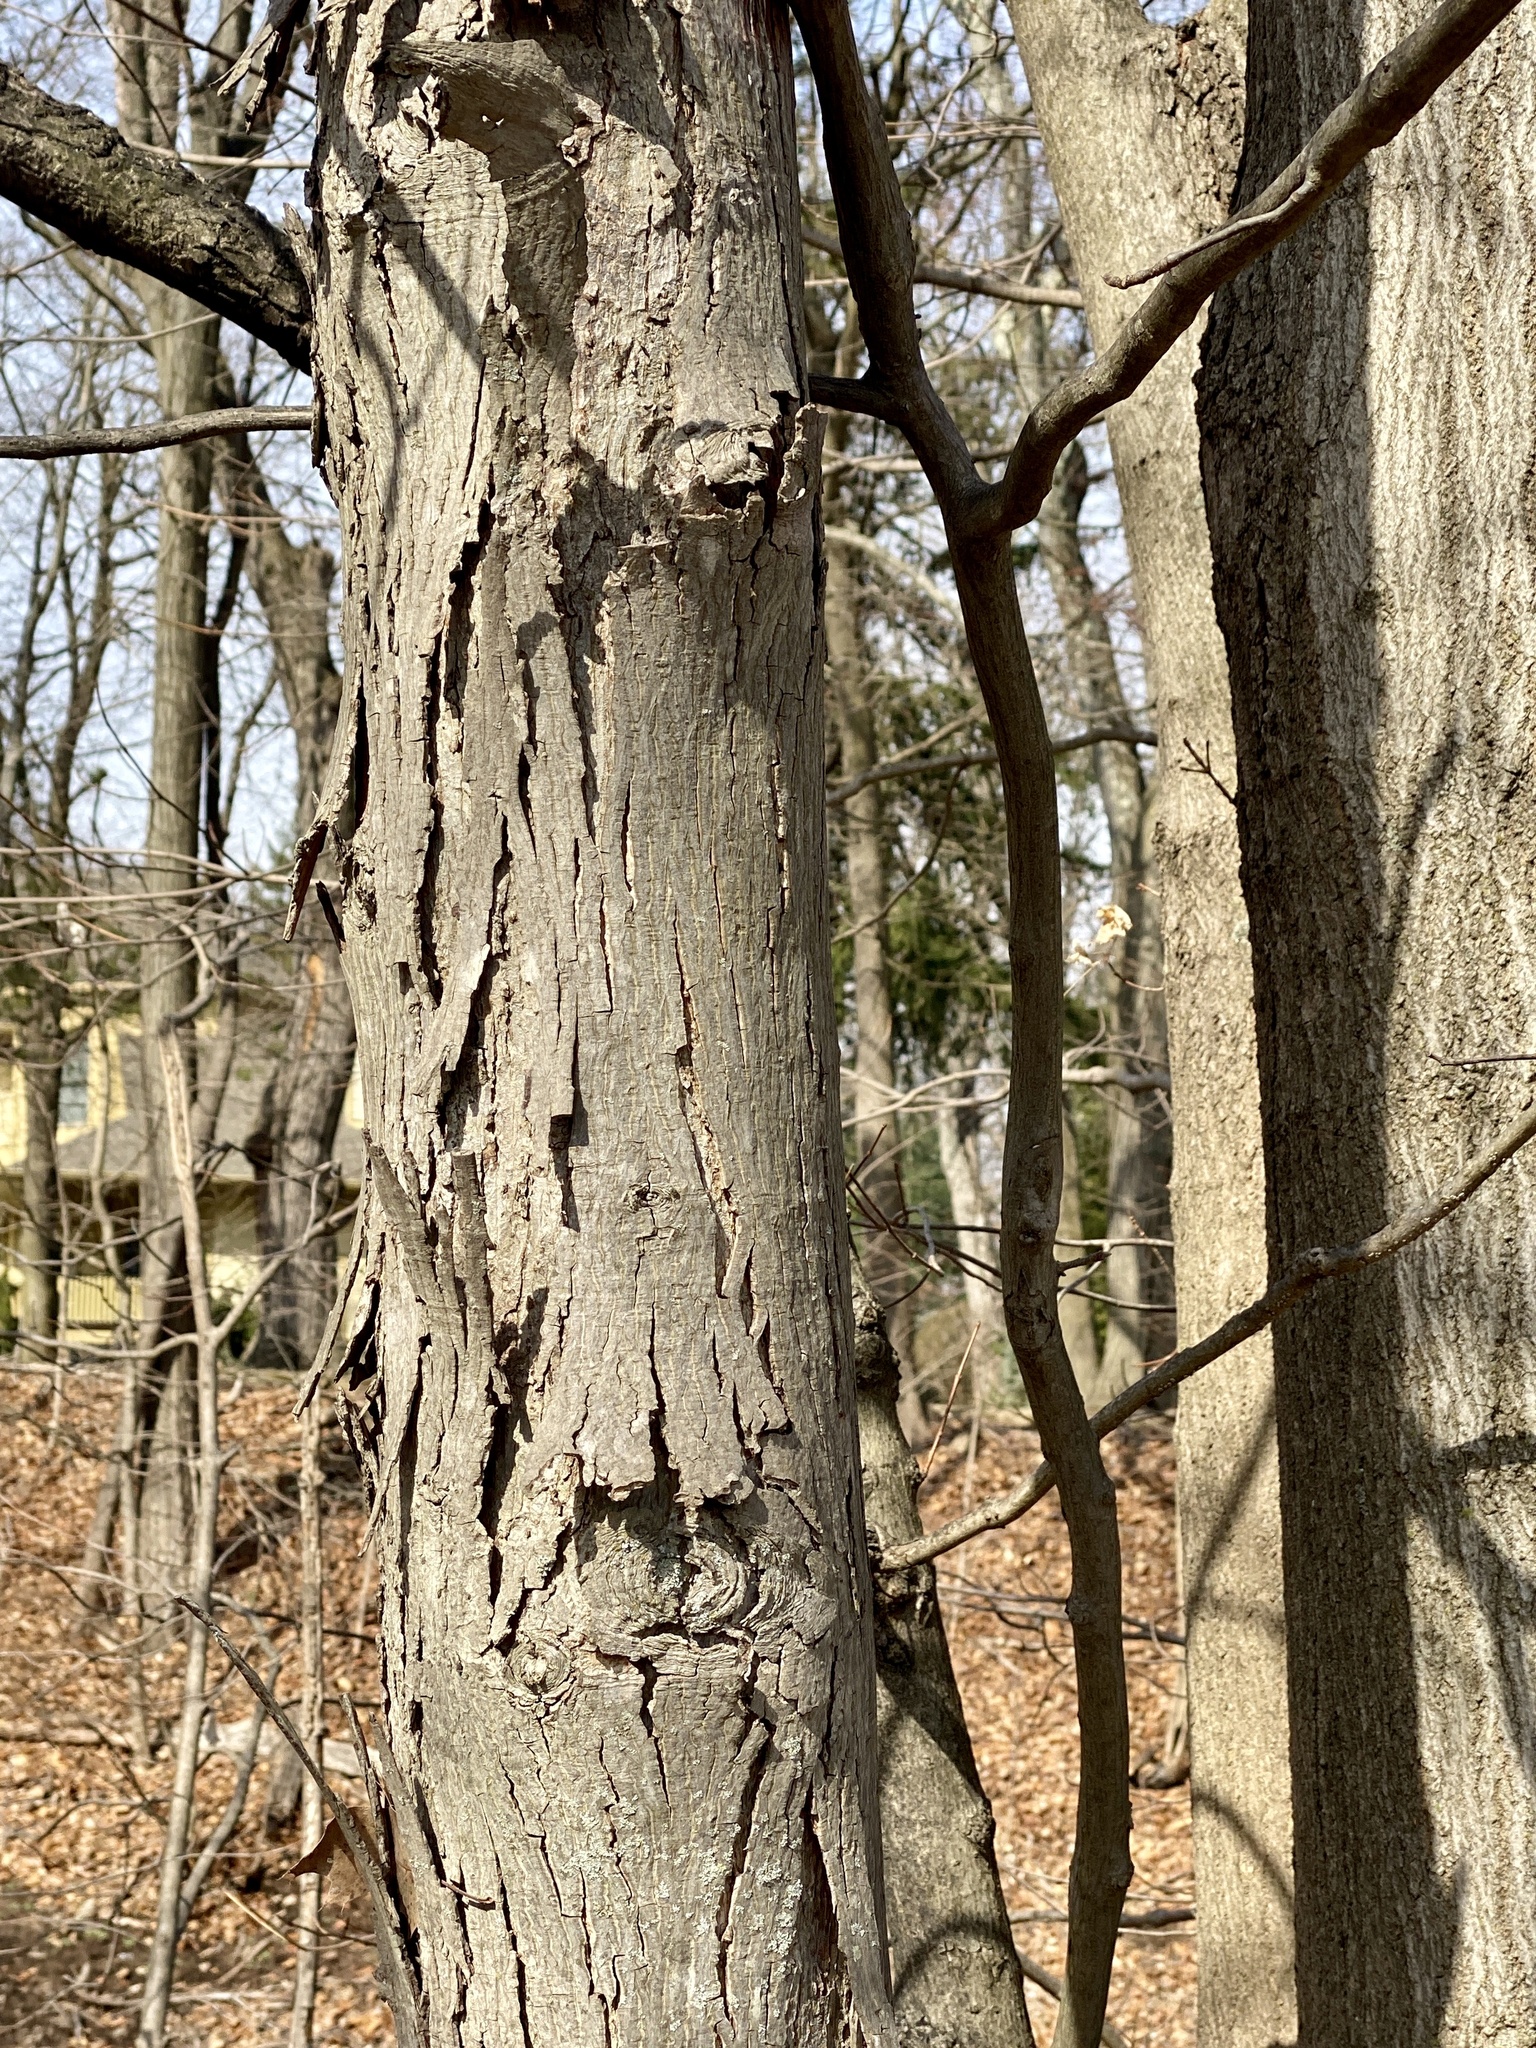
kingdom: Plantae
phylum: Tracheophyta
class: Magnoliopsida
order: Fagales
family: Juglandaceae
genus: Carya
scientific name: Carya ovata
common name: Shagbark hickory
